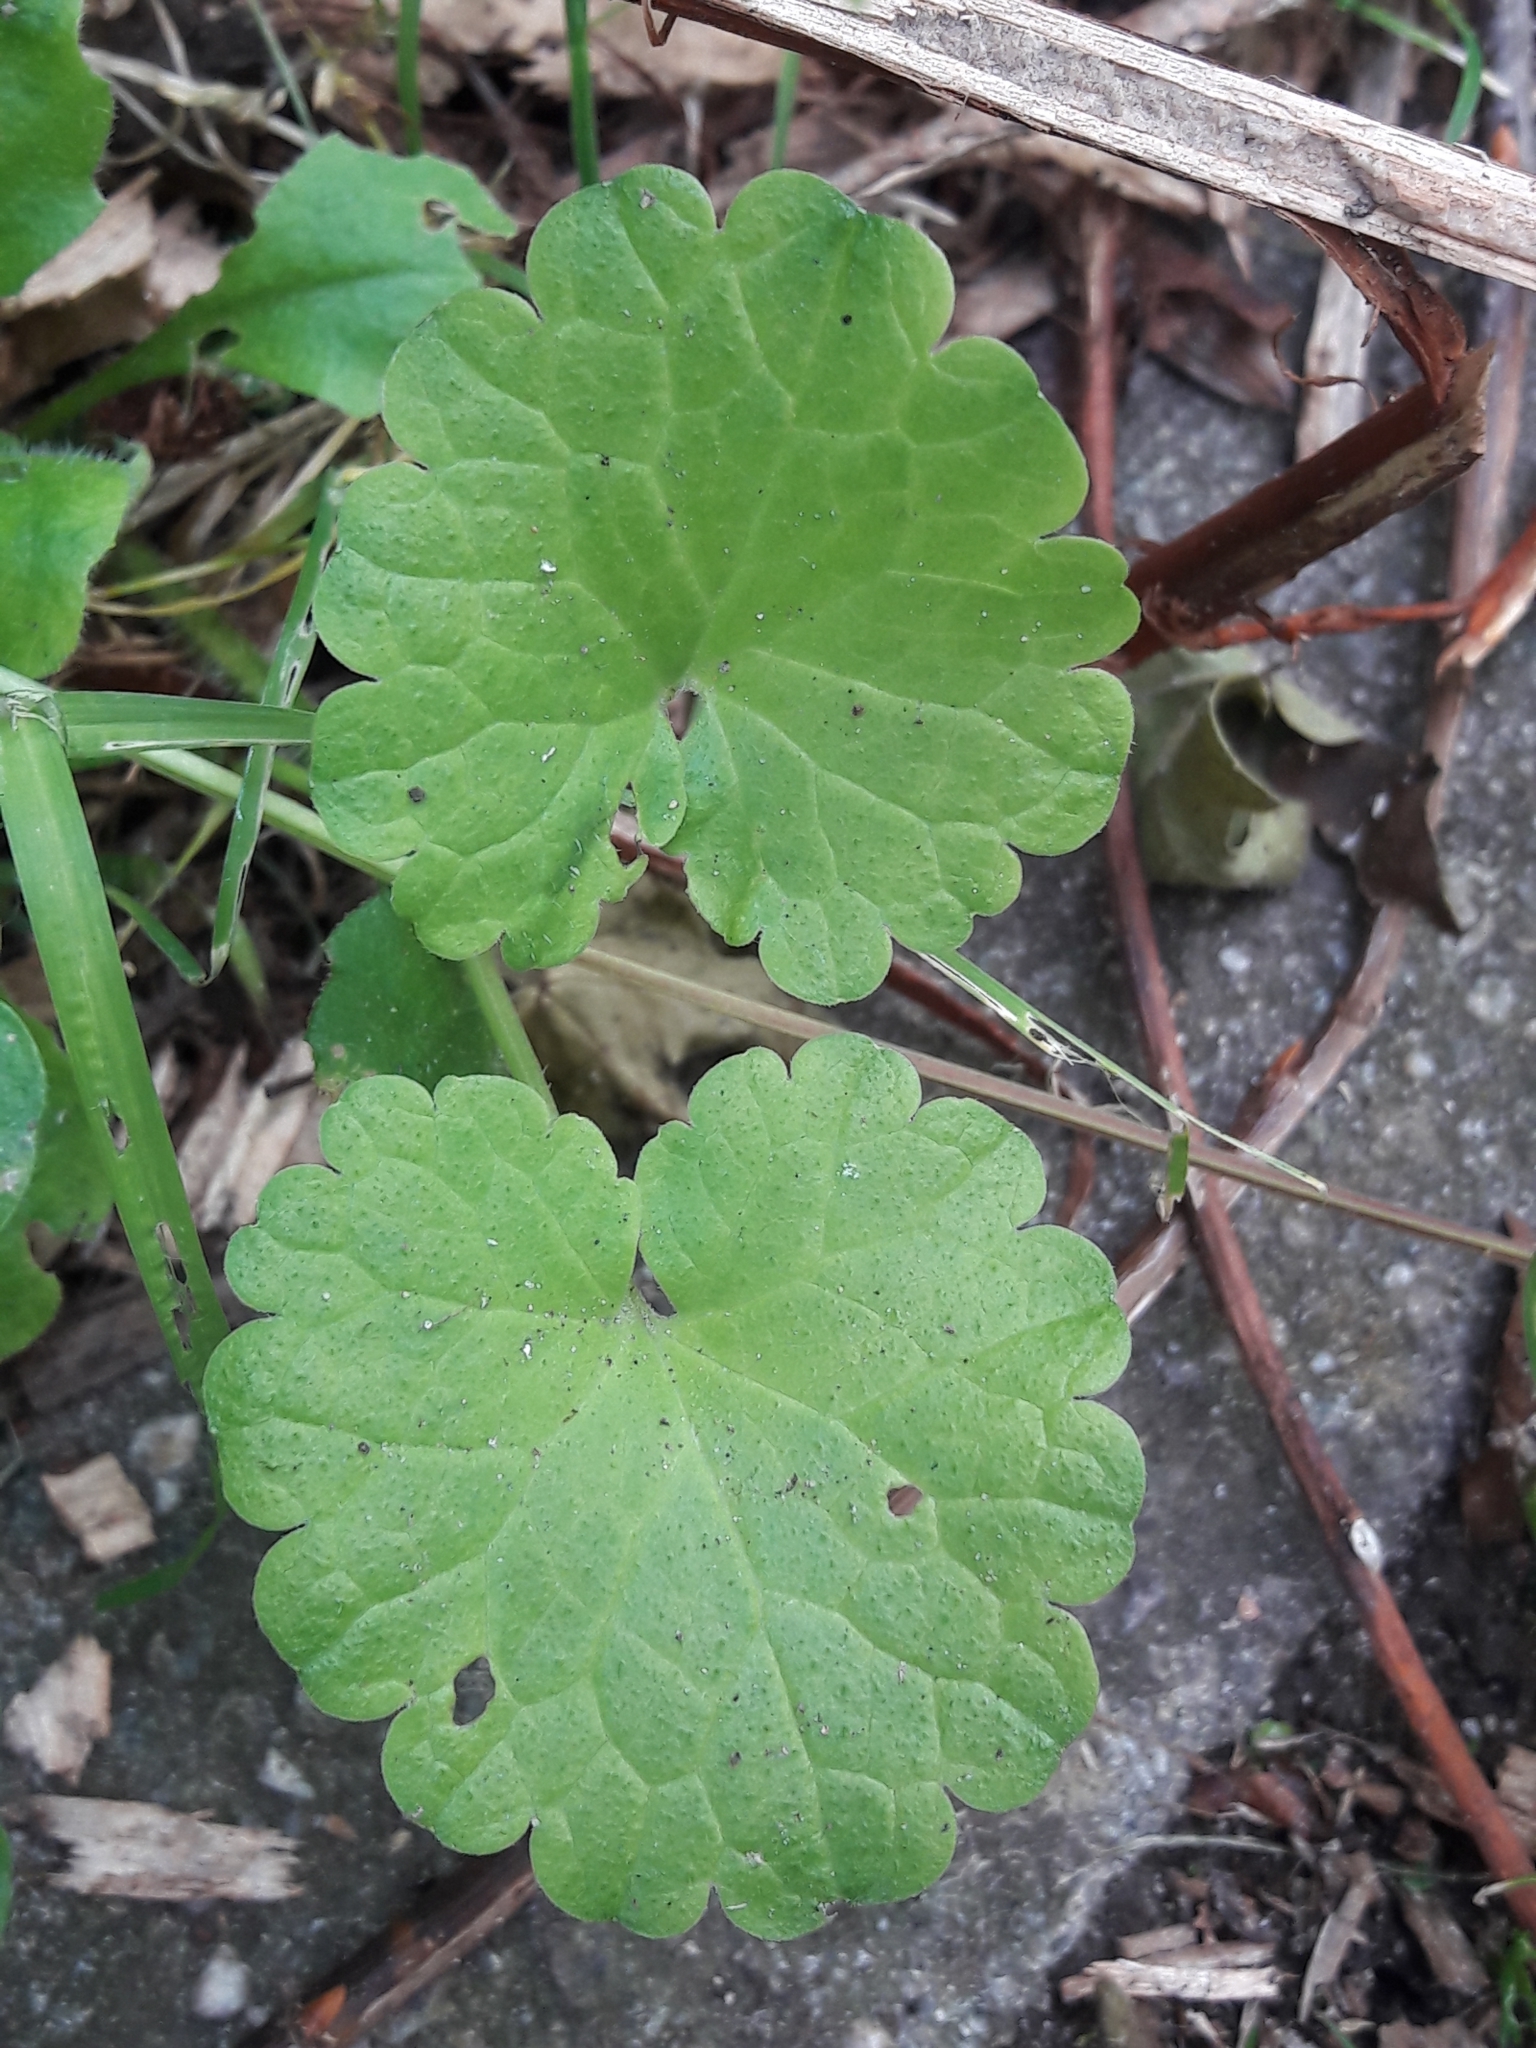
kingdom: Plantae
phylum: Tracheophyta
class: Magnoliopsida
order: Lamiales
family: Lamiaceae
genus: Glechoma
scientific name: Glechoma hederacea
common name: Ground ivy
